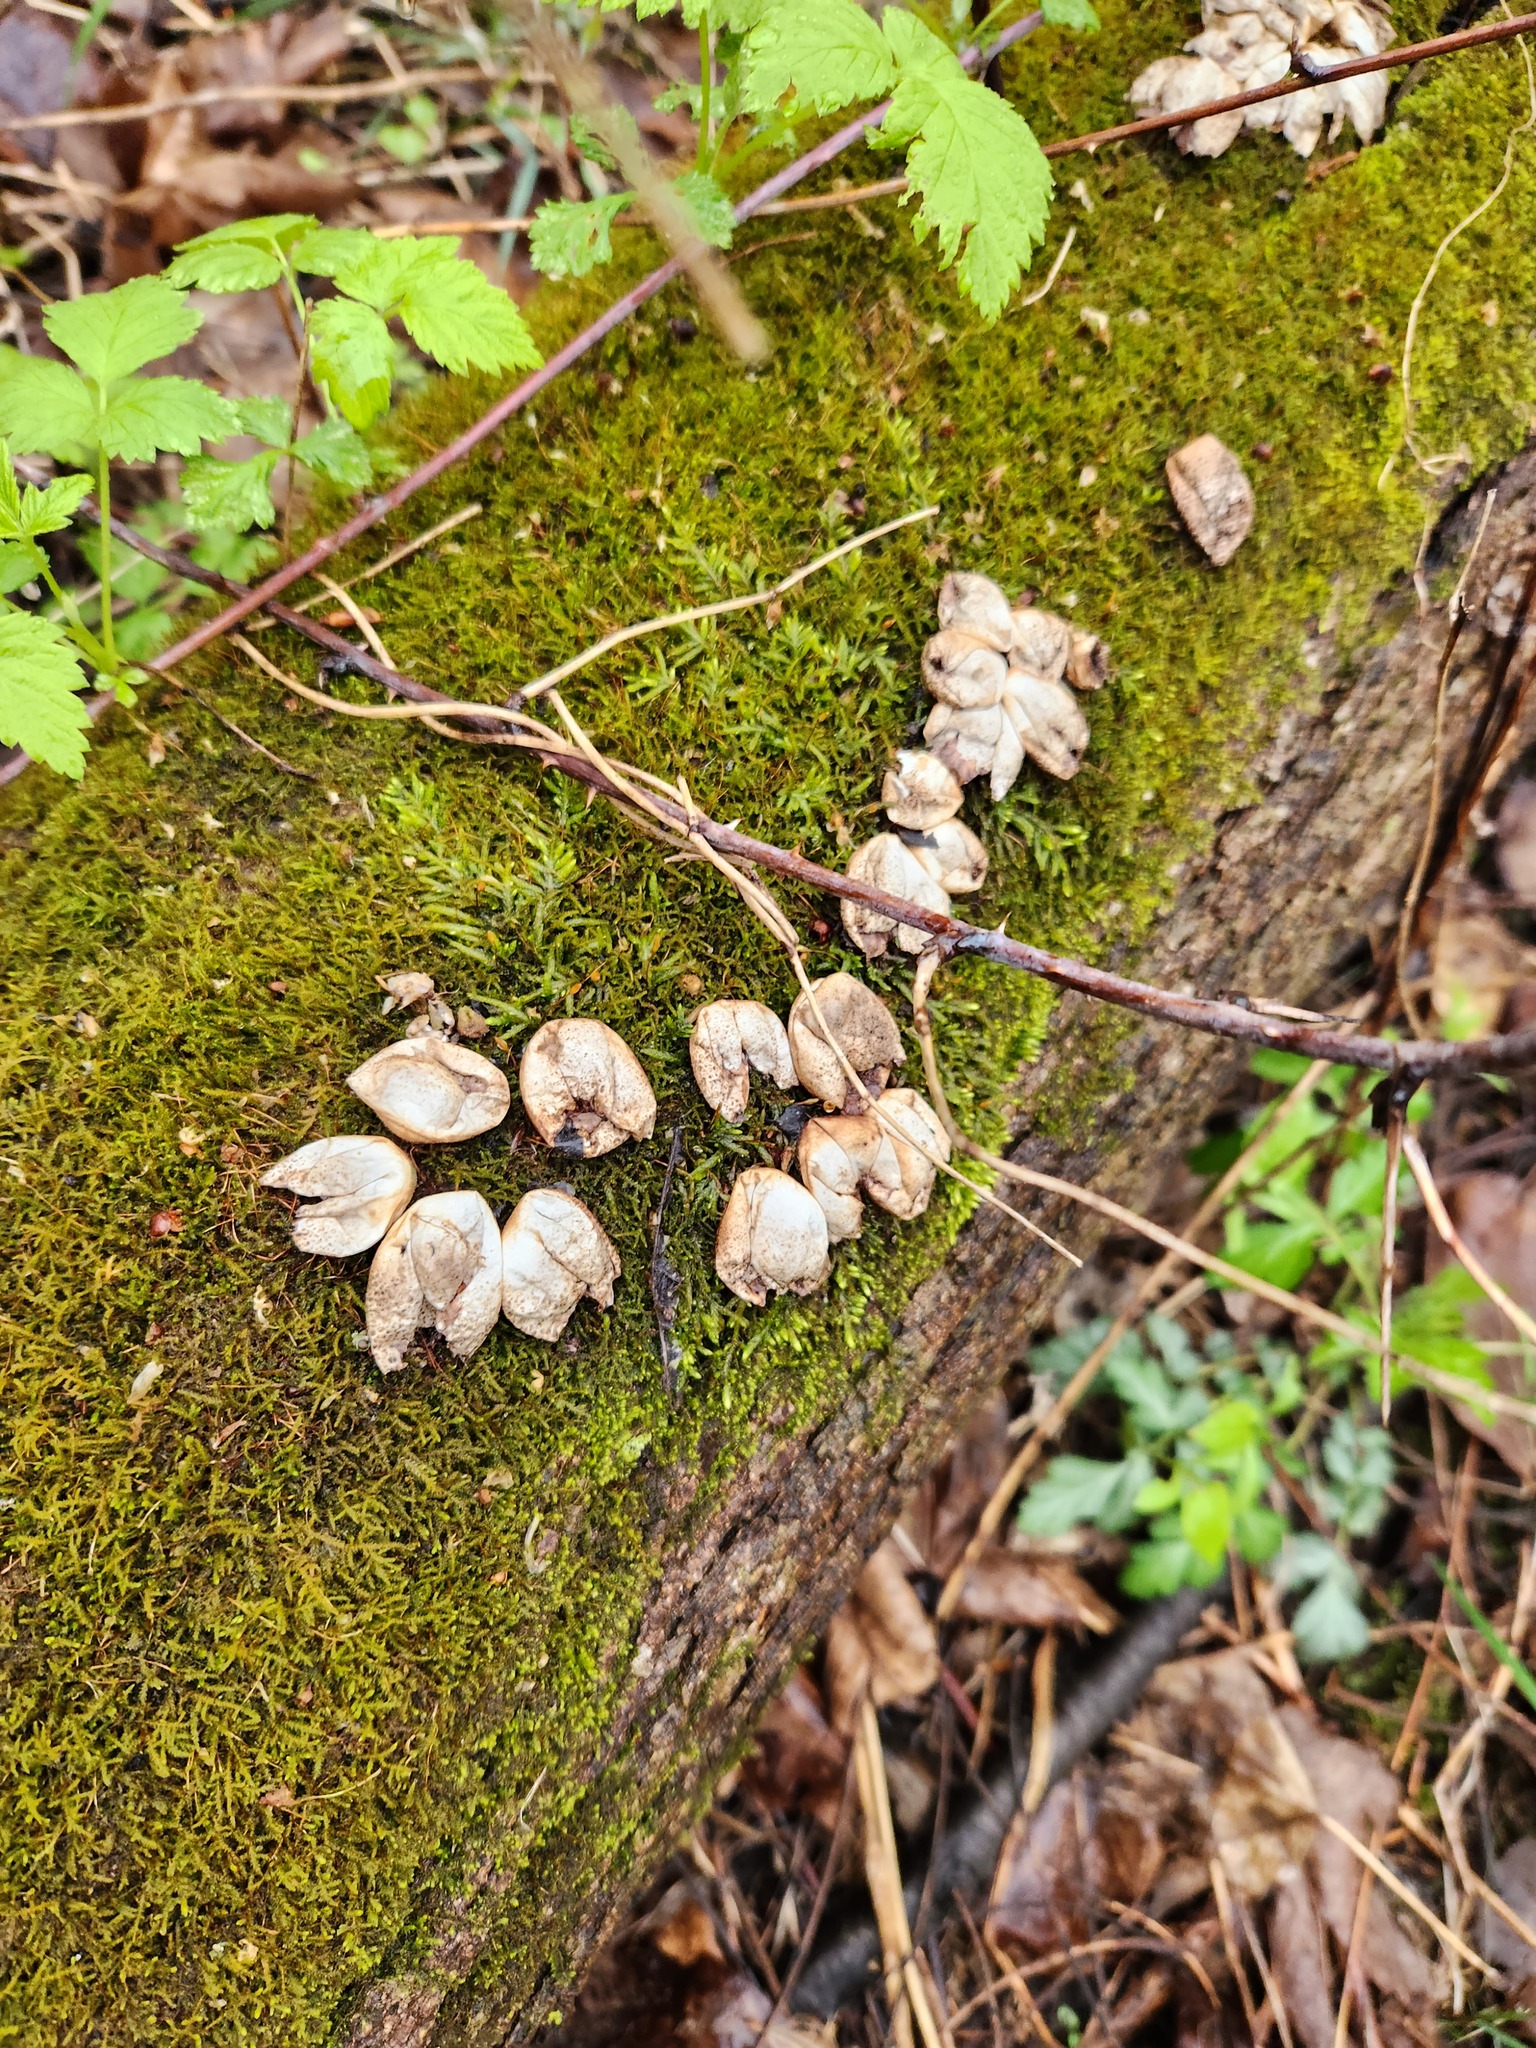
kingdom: Fungi
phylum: Basidiomycota
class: Agaricomycetes
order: Agaricales
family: Lycoperdaceae
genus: Apioperdon
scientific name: Apioperdon pyriforme
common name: Pear-shaped puffball
